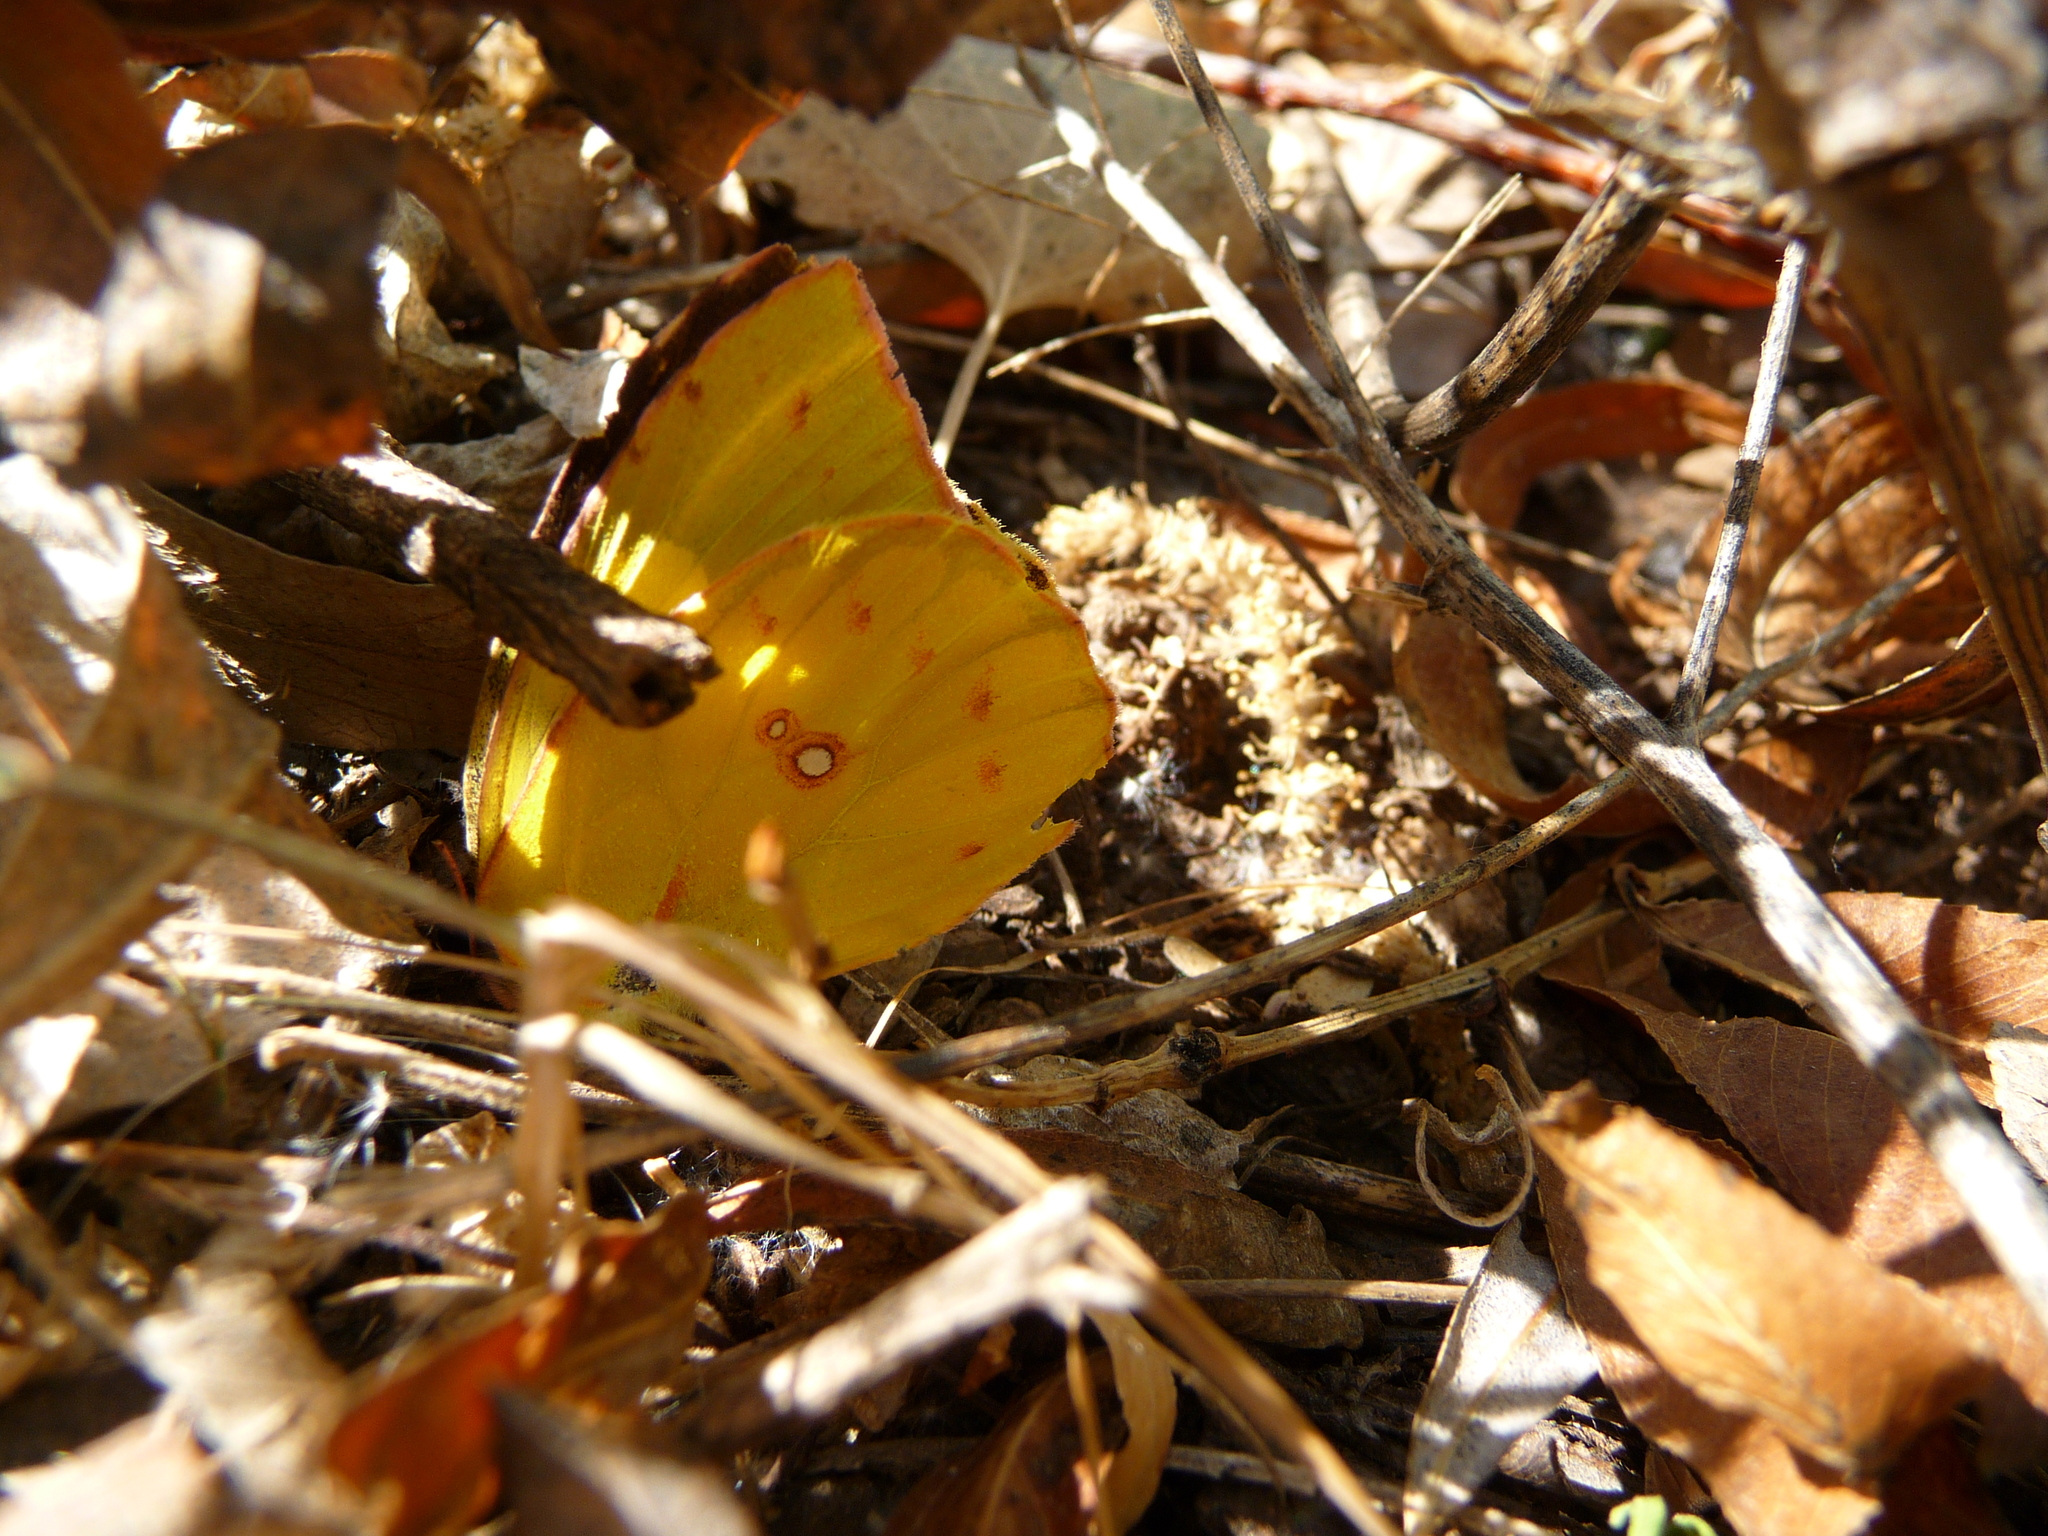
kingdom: Animalia
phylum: Arthropoda
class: Insecta
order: Lepidoptera
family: Pieridae
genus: Zerene
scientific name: Zerene cesonia
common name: Southern dogface
